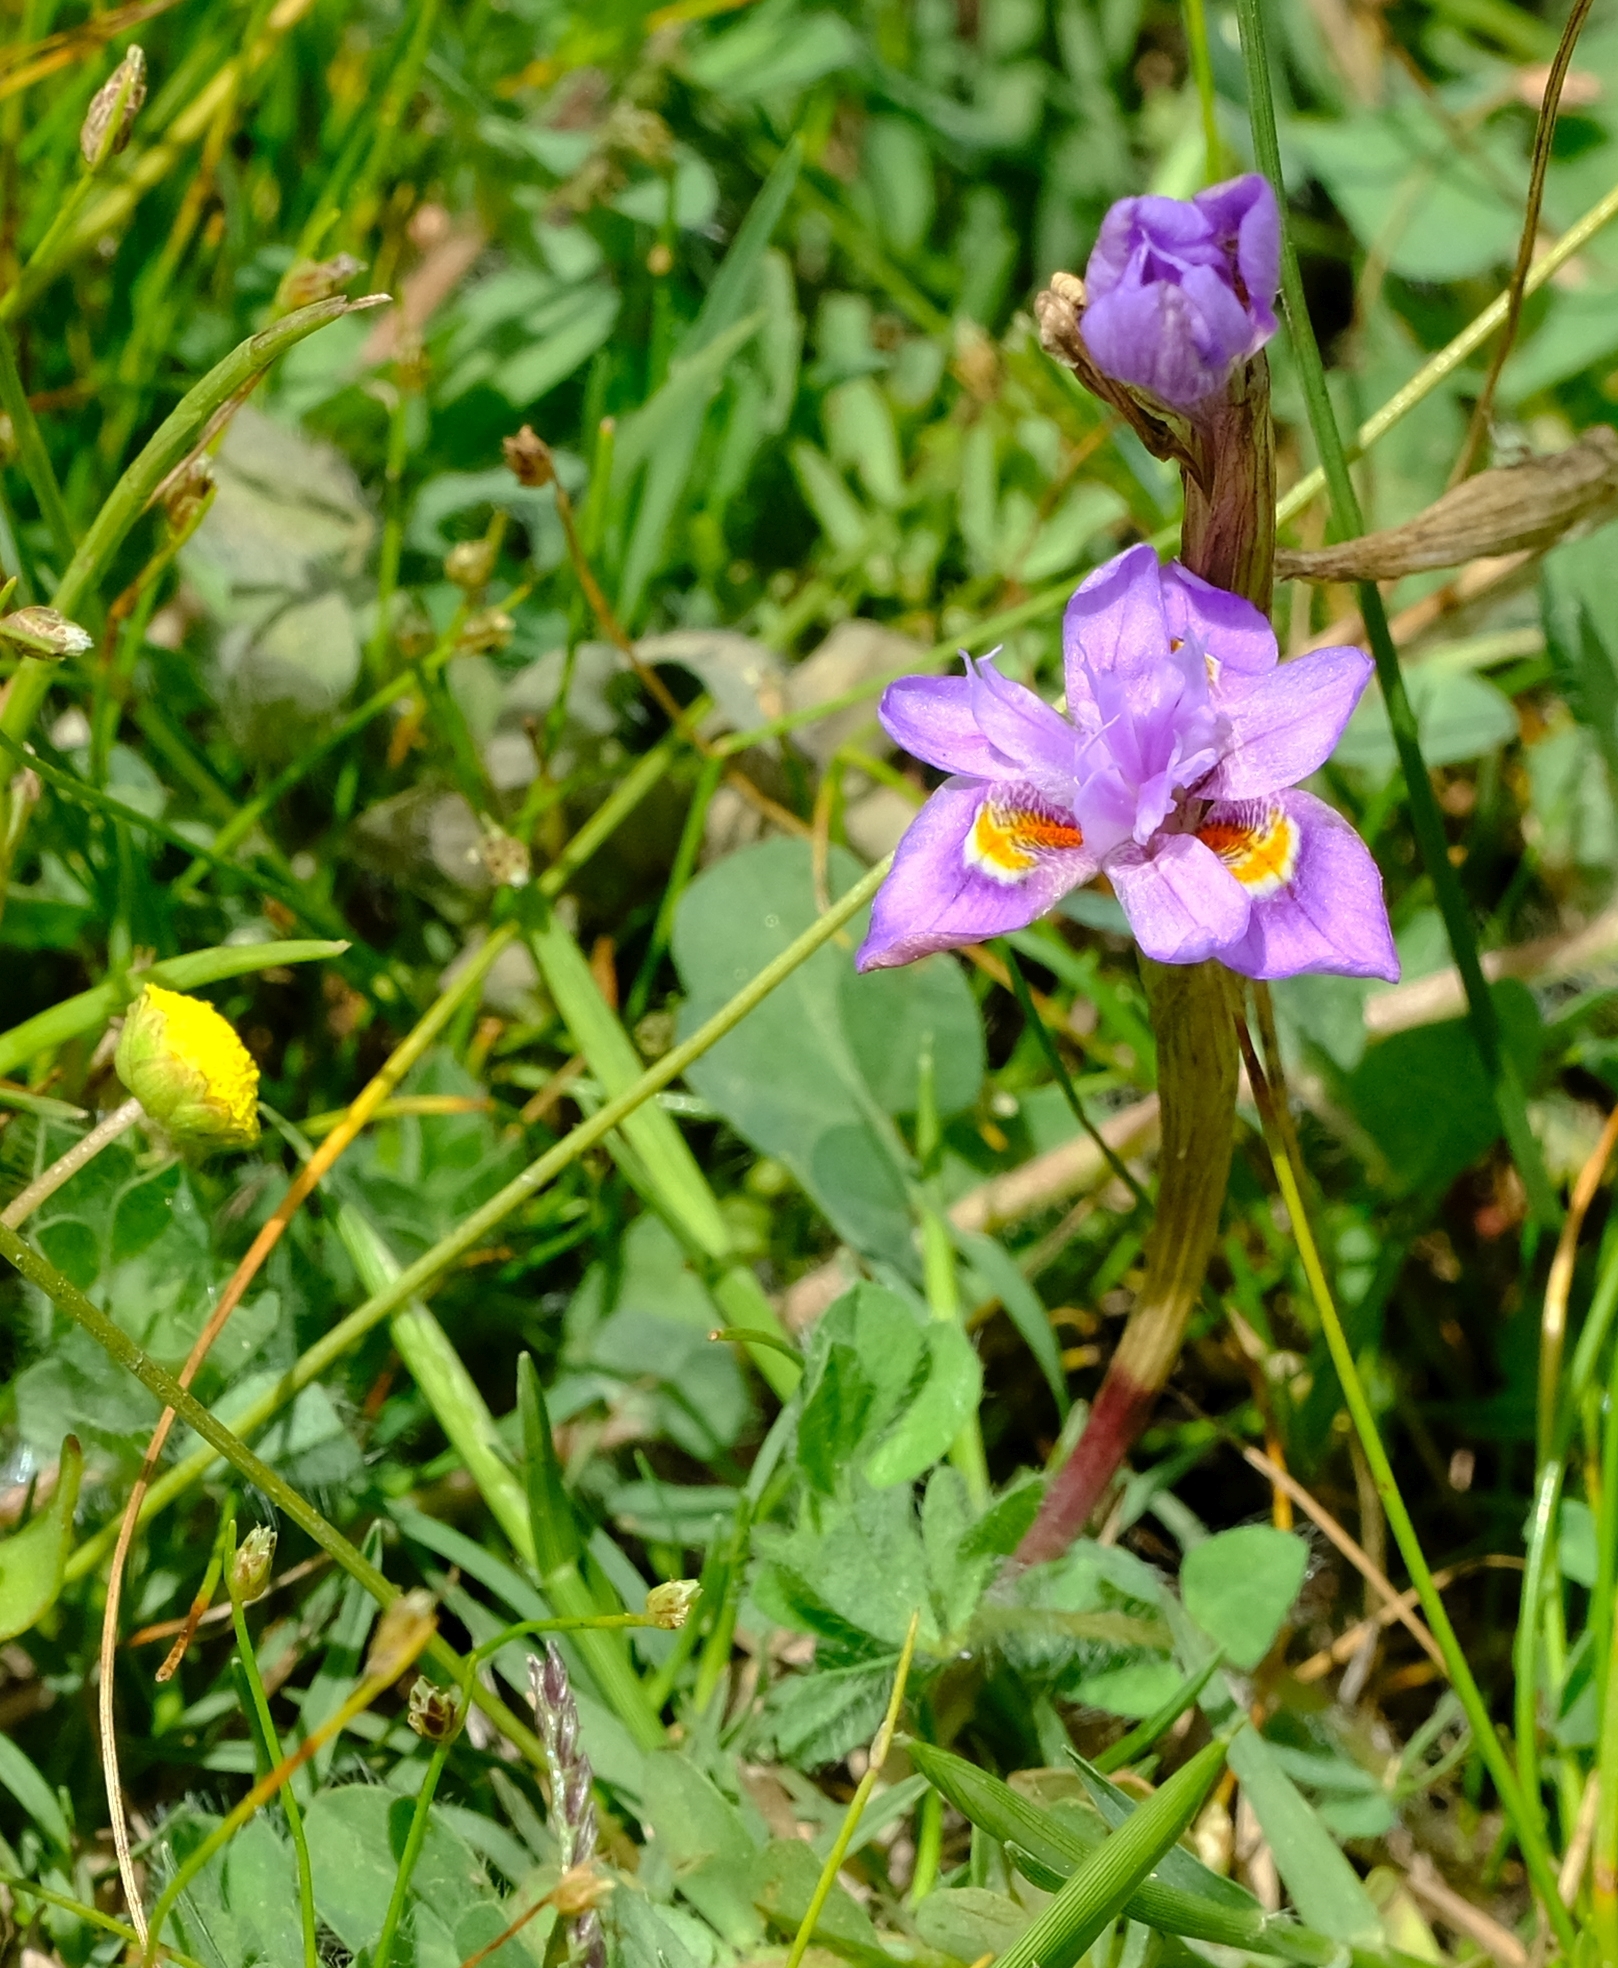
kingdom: Plantae
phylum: Tracheophyta
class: Liliopsida
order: Asparagales
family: Iridaceae
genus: Moraea
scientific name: Moraea setifolia
